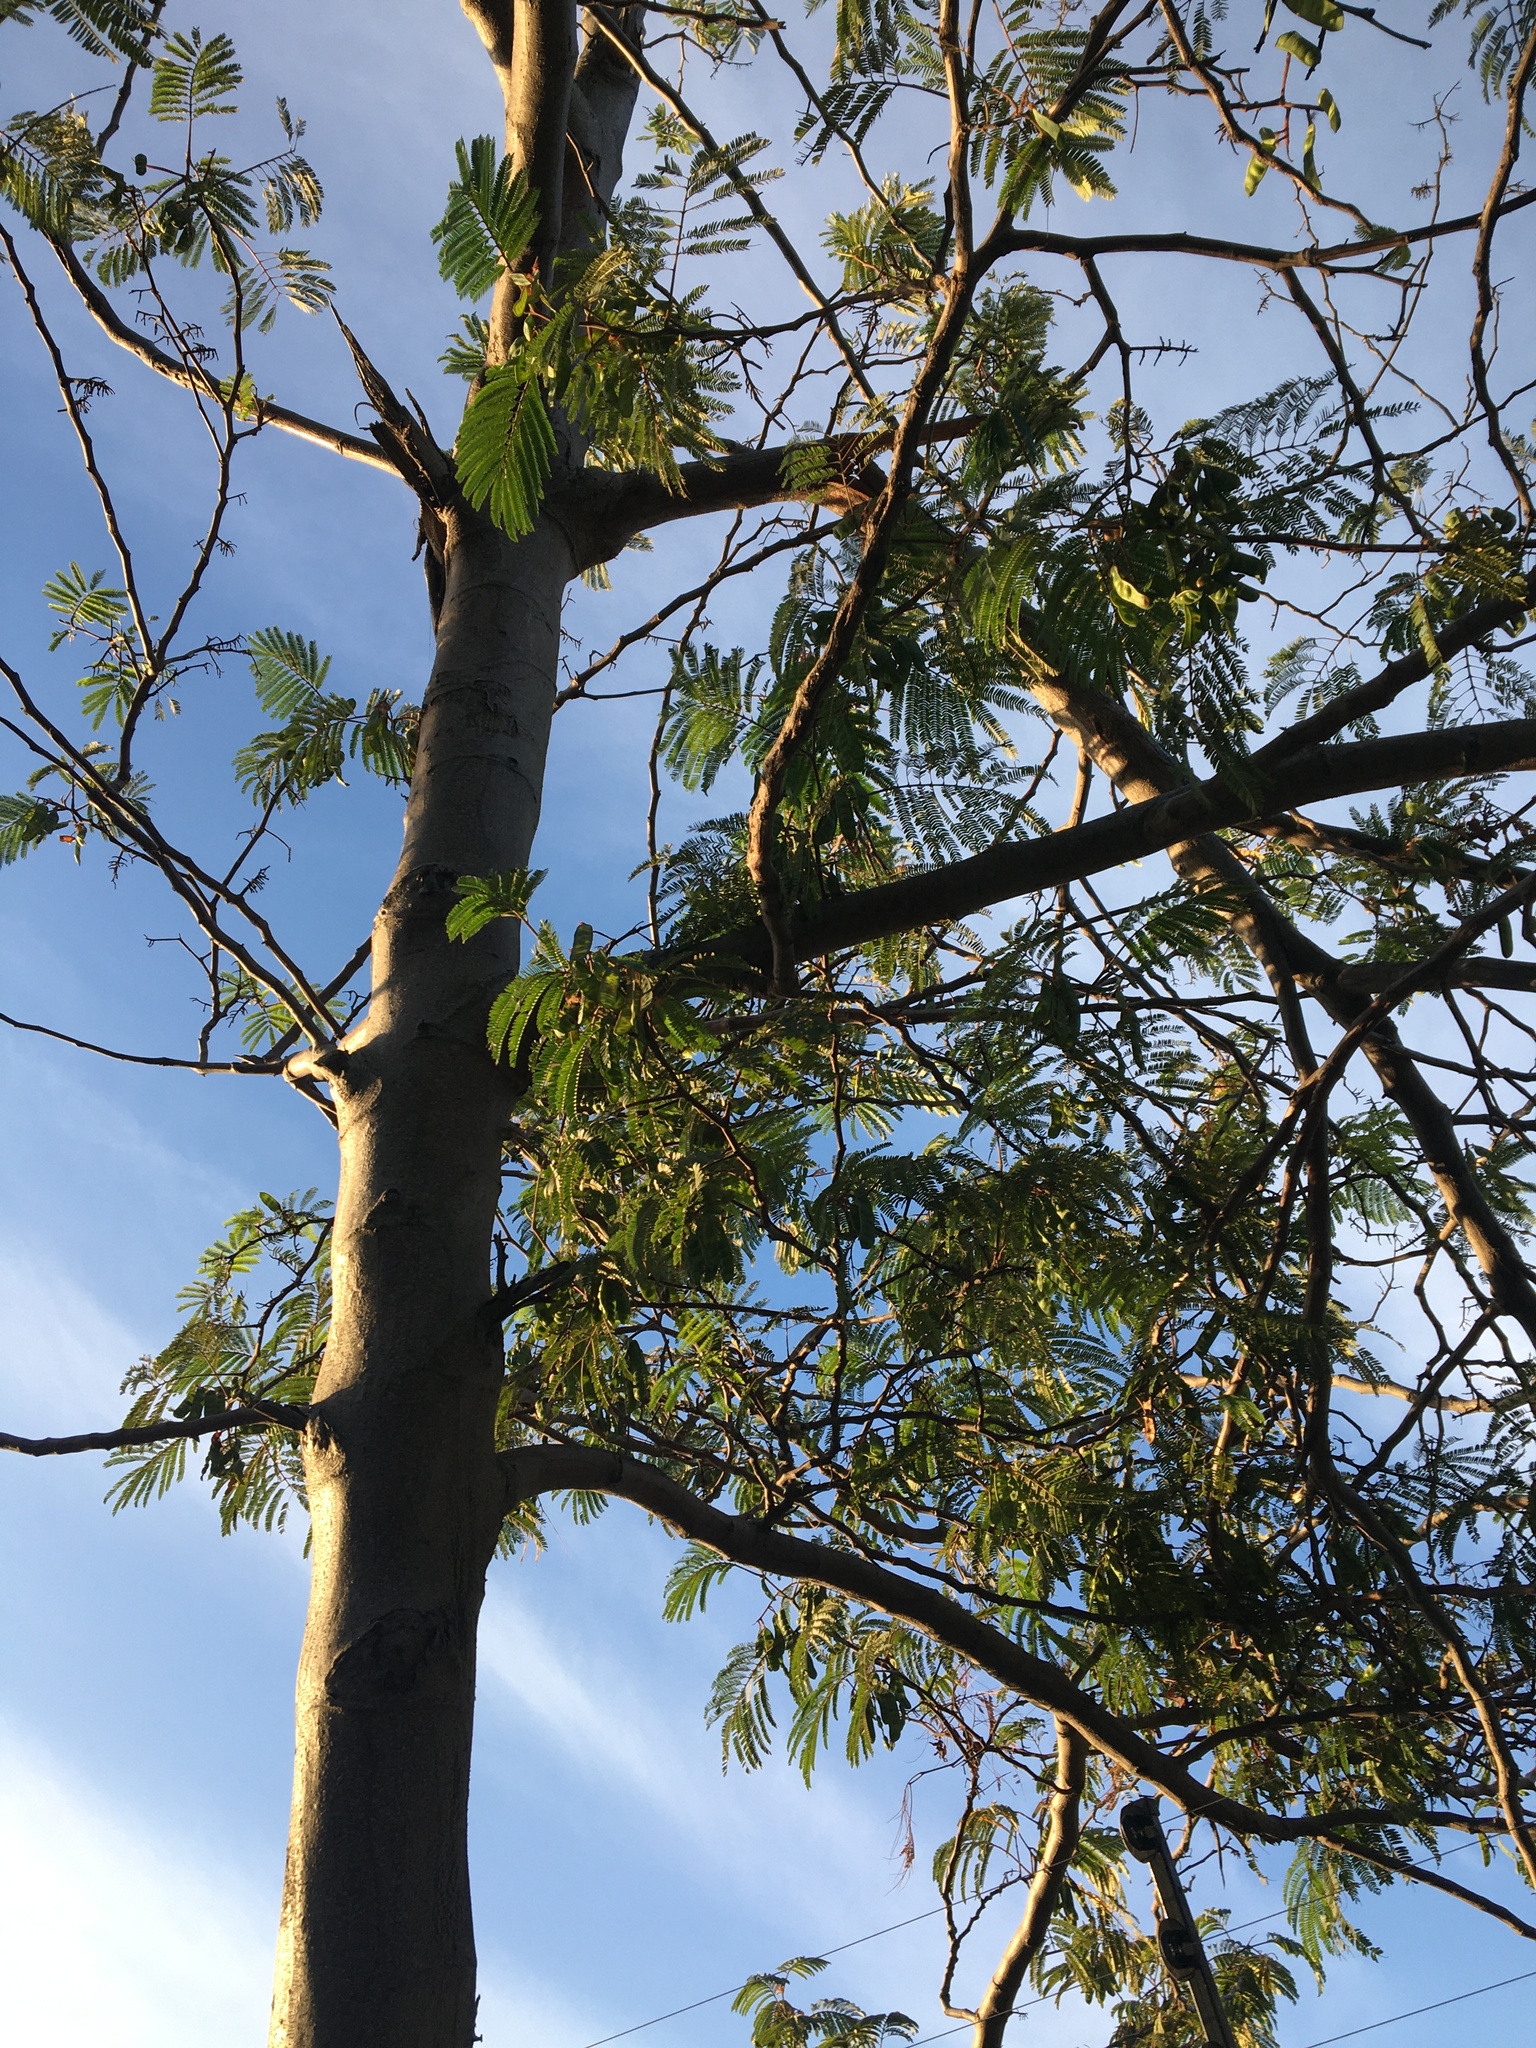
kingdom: Plantae
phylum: Tracheophyta
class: Magnoliopsida
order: Fabales
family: Fabaceae
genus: Paraserianthes
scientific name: Paraserianthes lophantha
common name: Plume albizia
